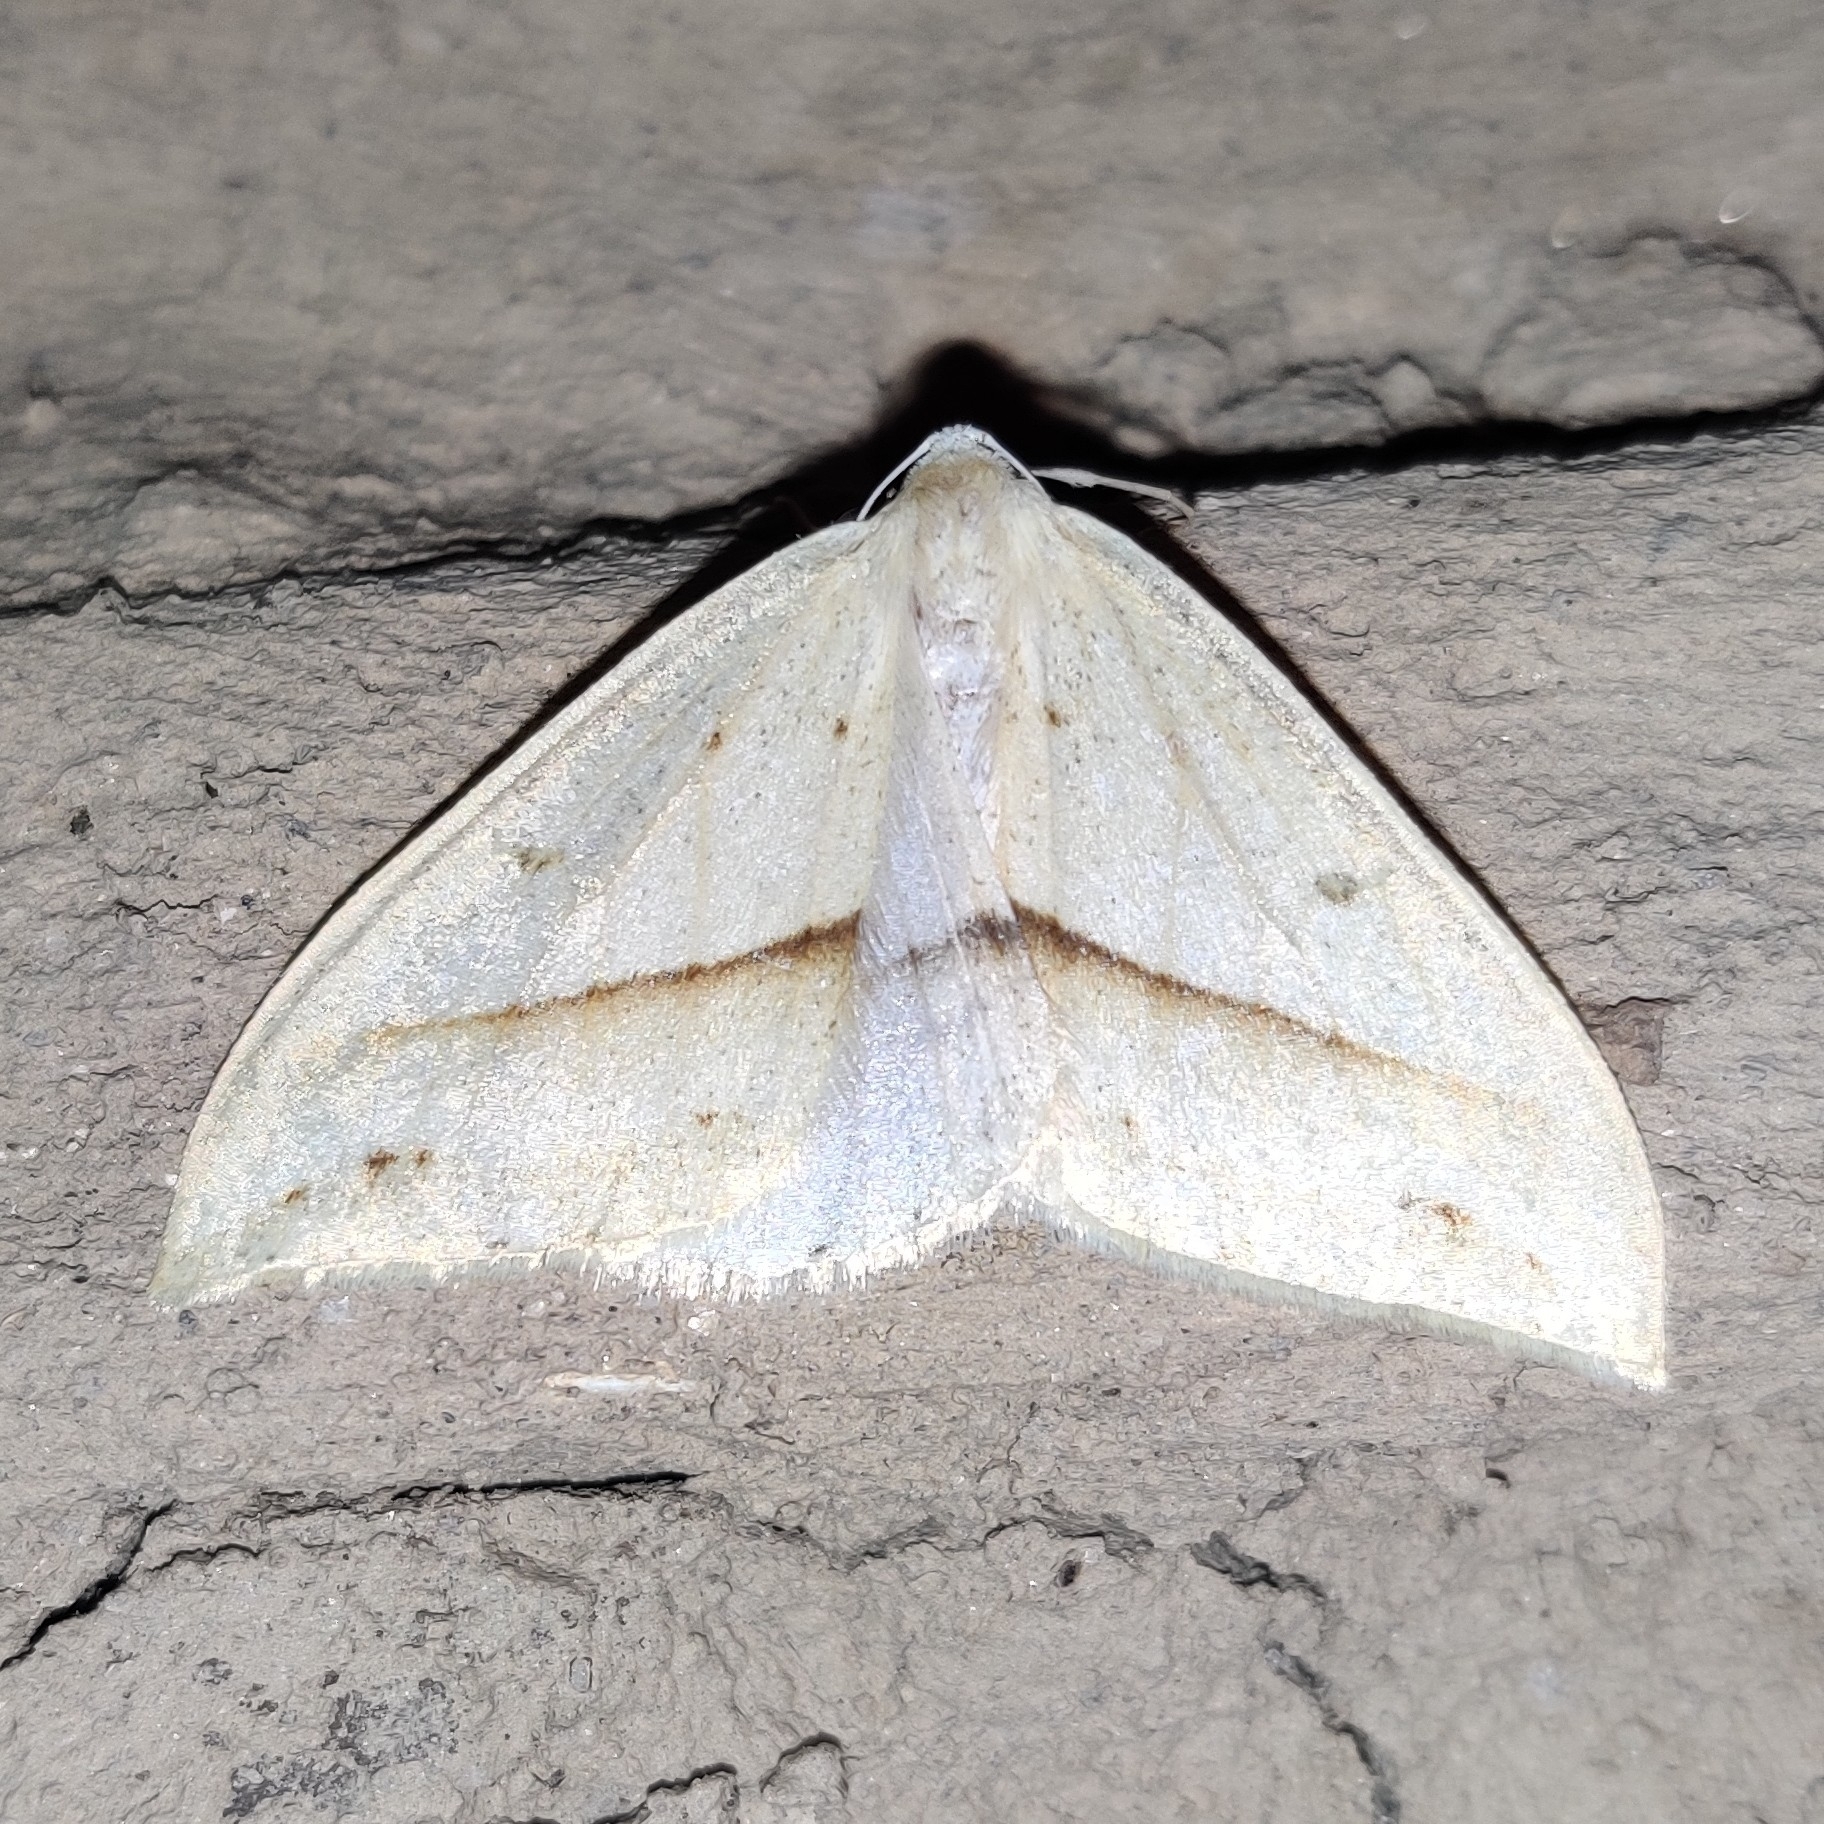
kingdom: Animalia
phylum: Arthropoda
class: Insecta
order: Lepidoptera
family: Geometridae
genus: Loxaspilates
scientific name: Loxaspilates obliquaria
